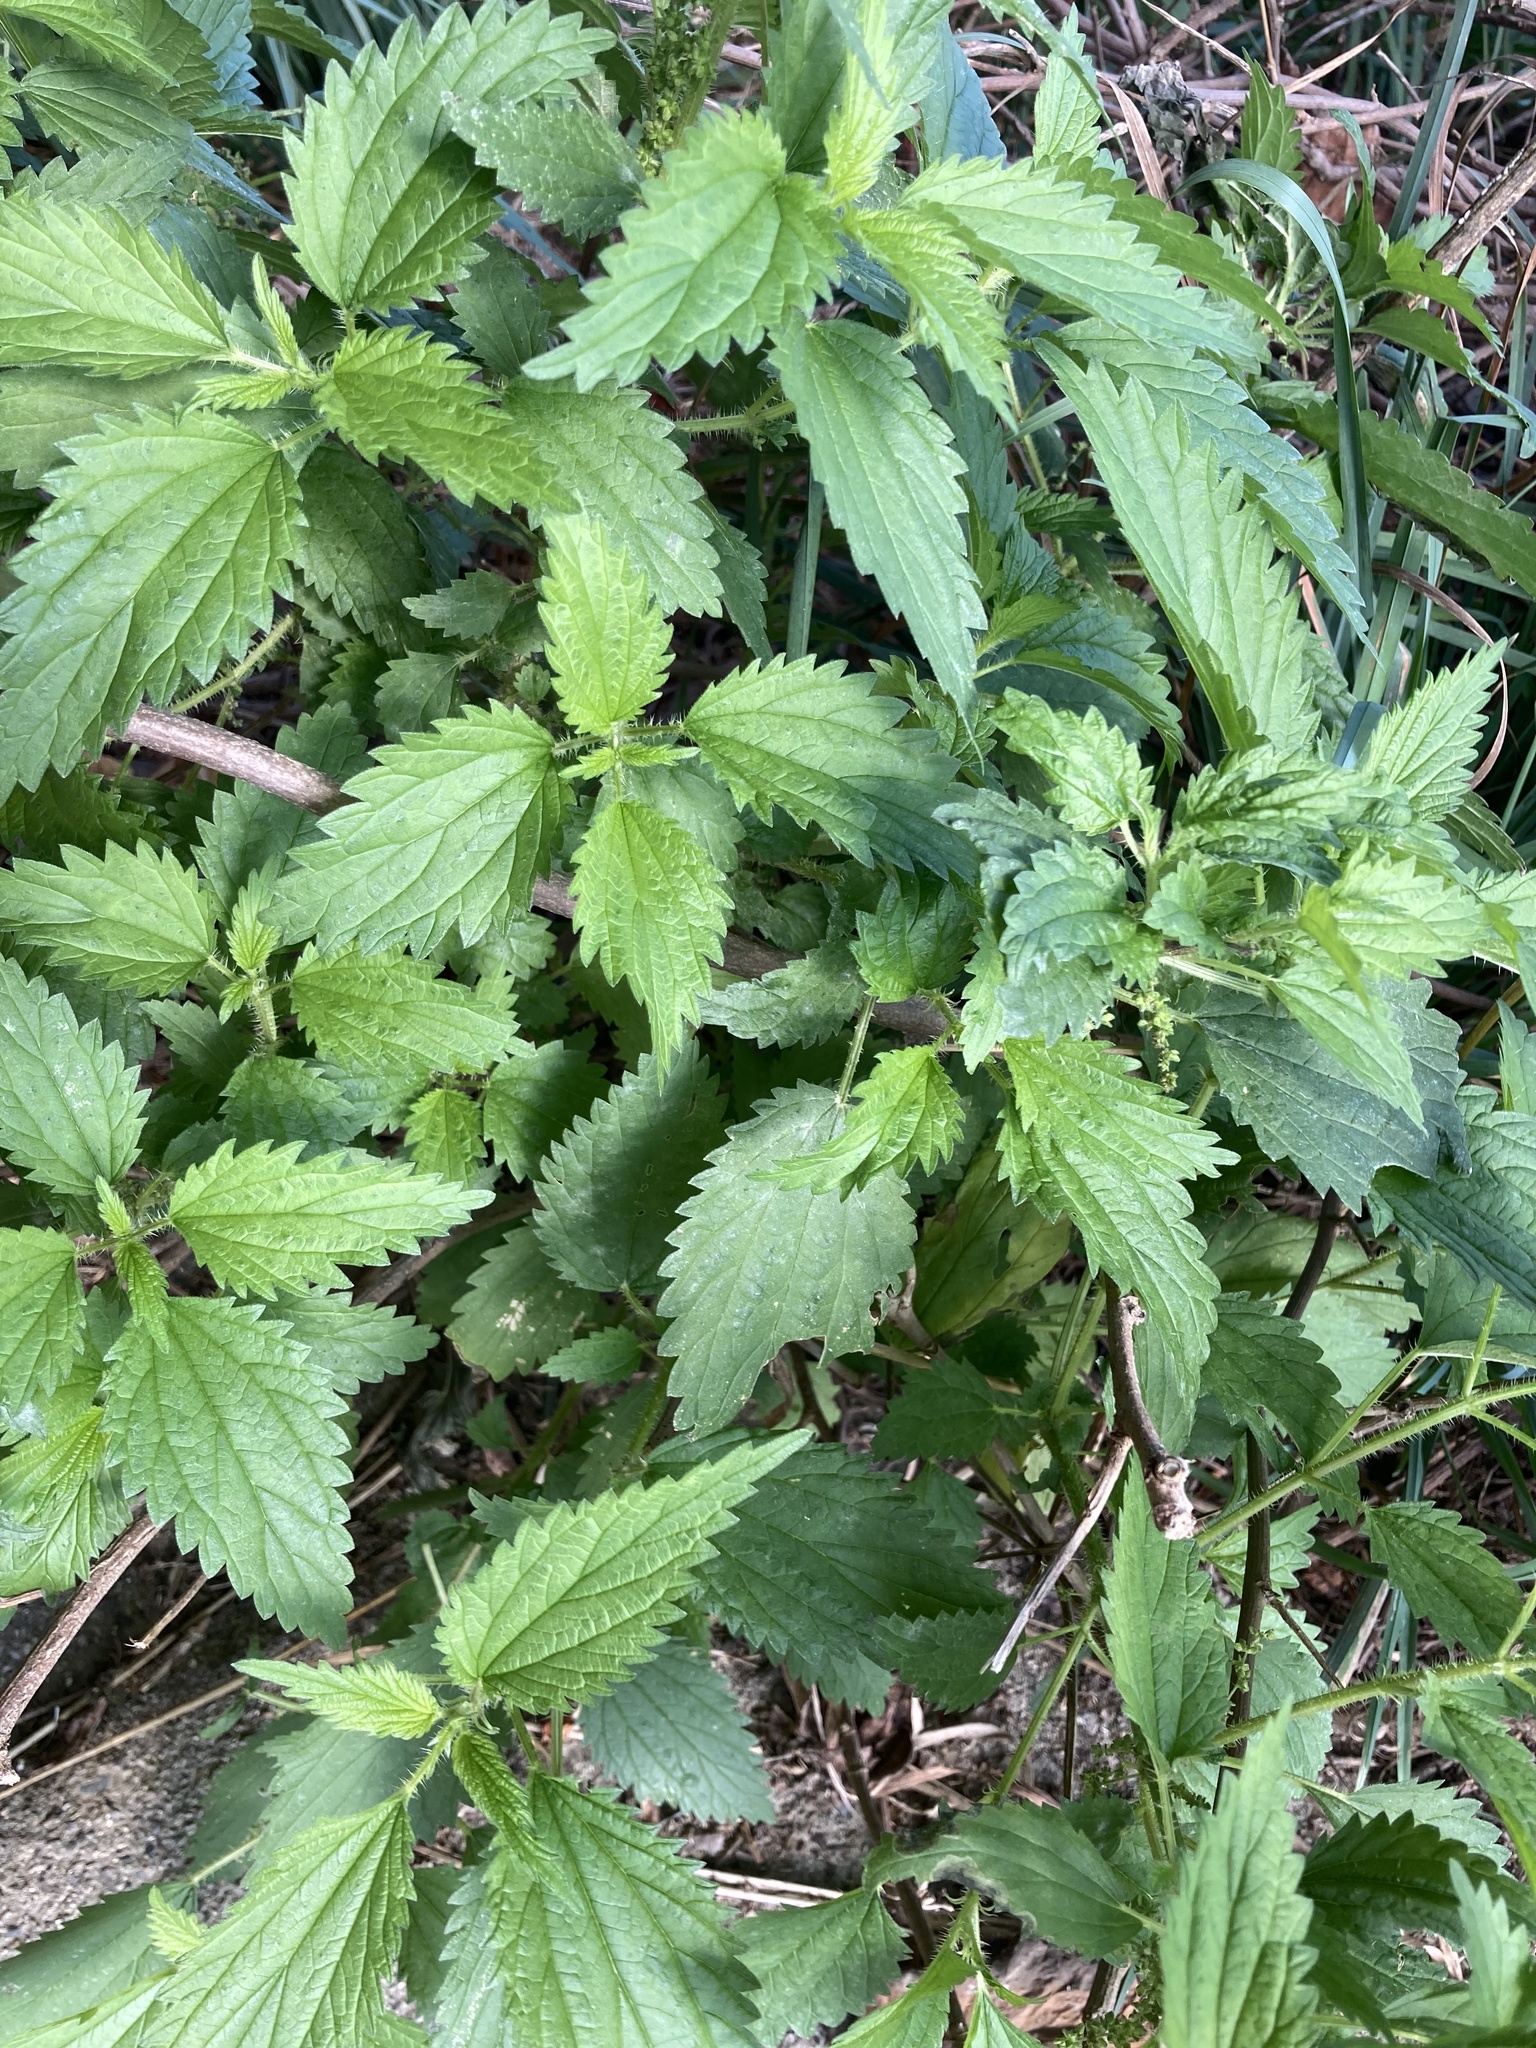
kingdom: Plantae
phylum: Tracheophyta
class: Magnoliopsida
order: Rosales
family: Urticaceae
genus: Urtica
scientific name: Urtica dioica
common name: Common nettle
